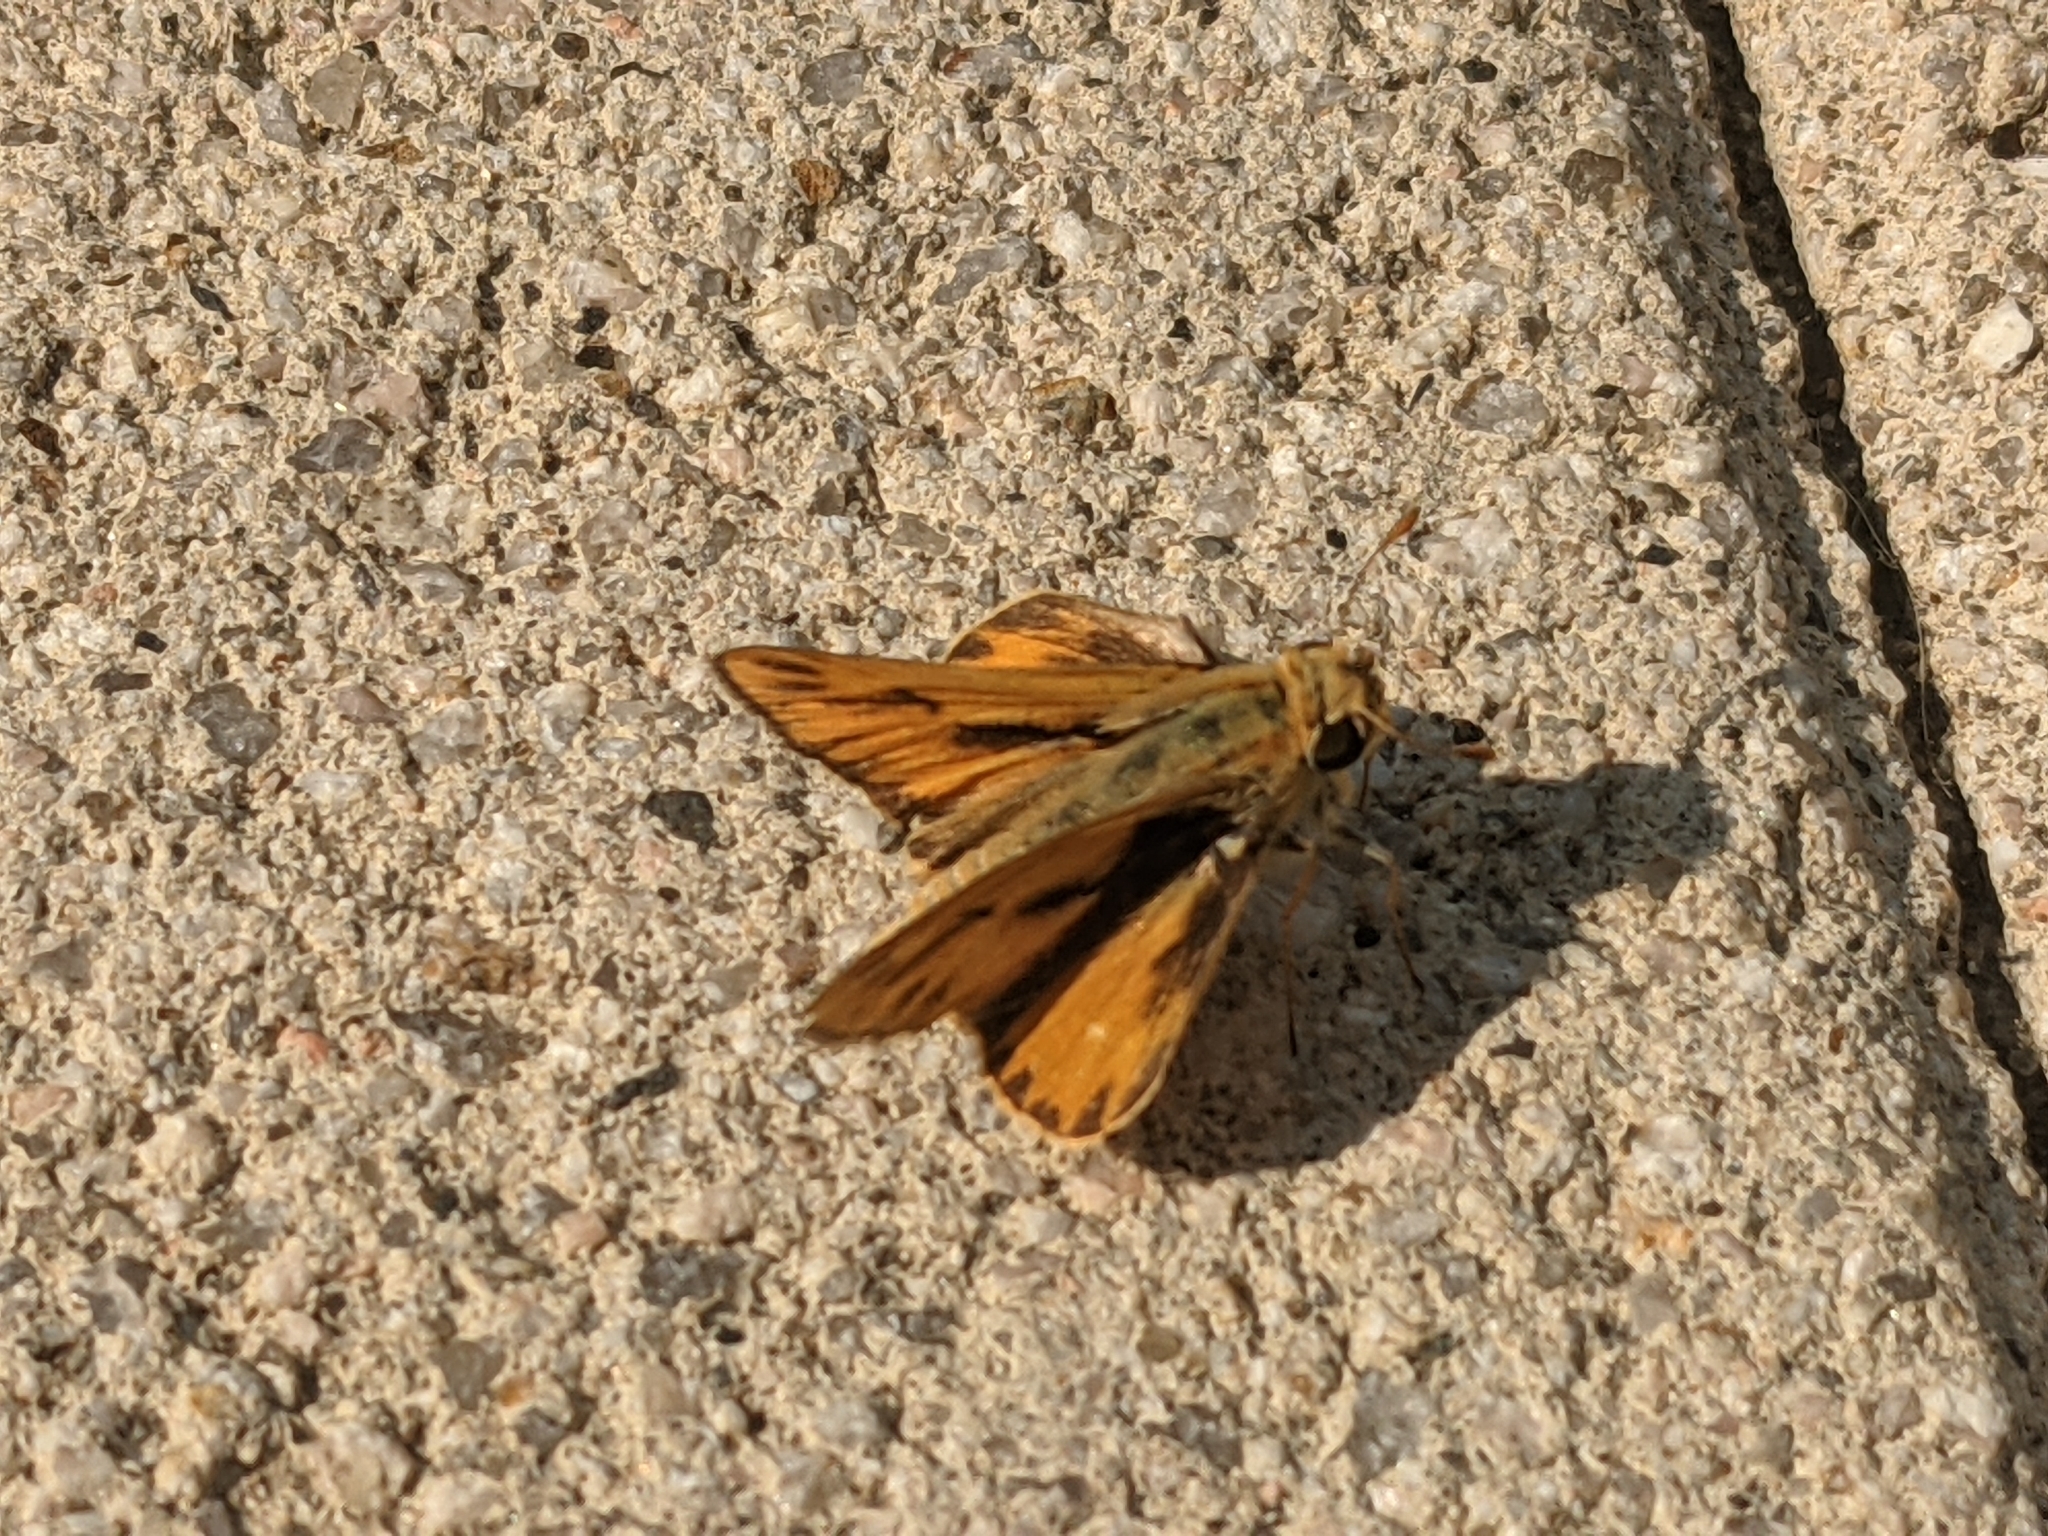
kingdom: Animalia
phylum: Arthropoda
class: Insecta
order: Lepidoptera
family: Hesperiidae
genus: Hylephila
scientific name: Hylephila phyleus
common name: Fiery skipper
